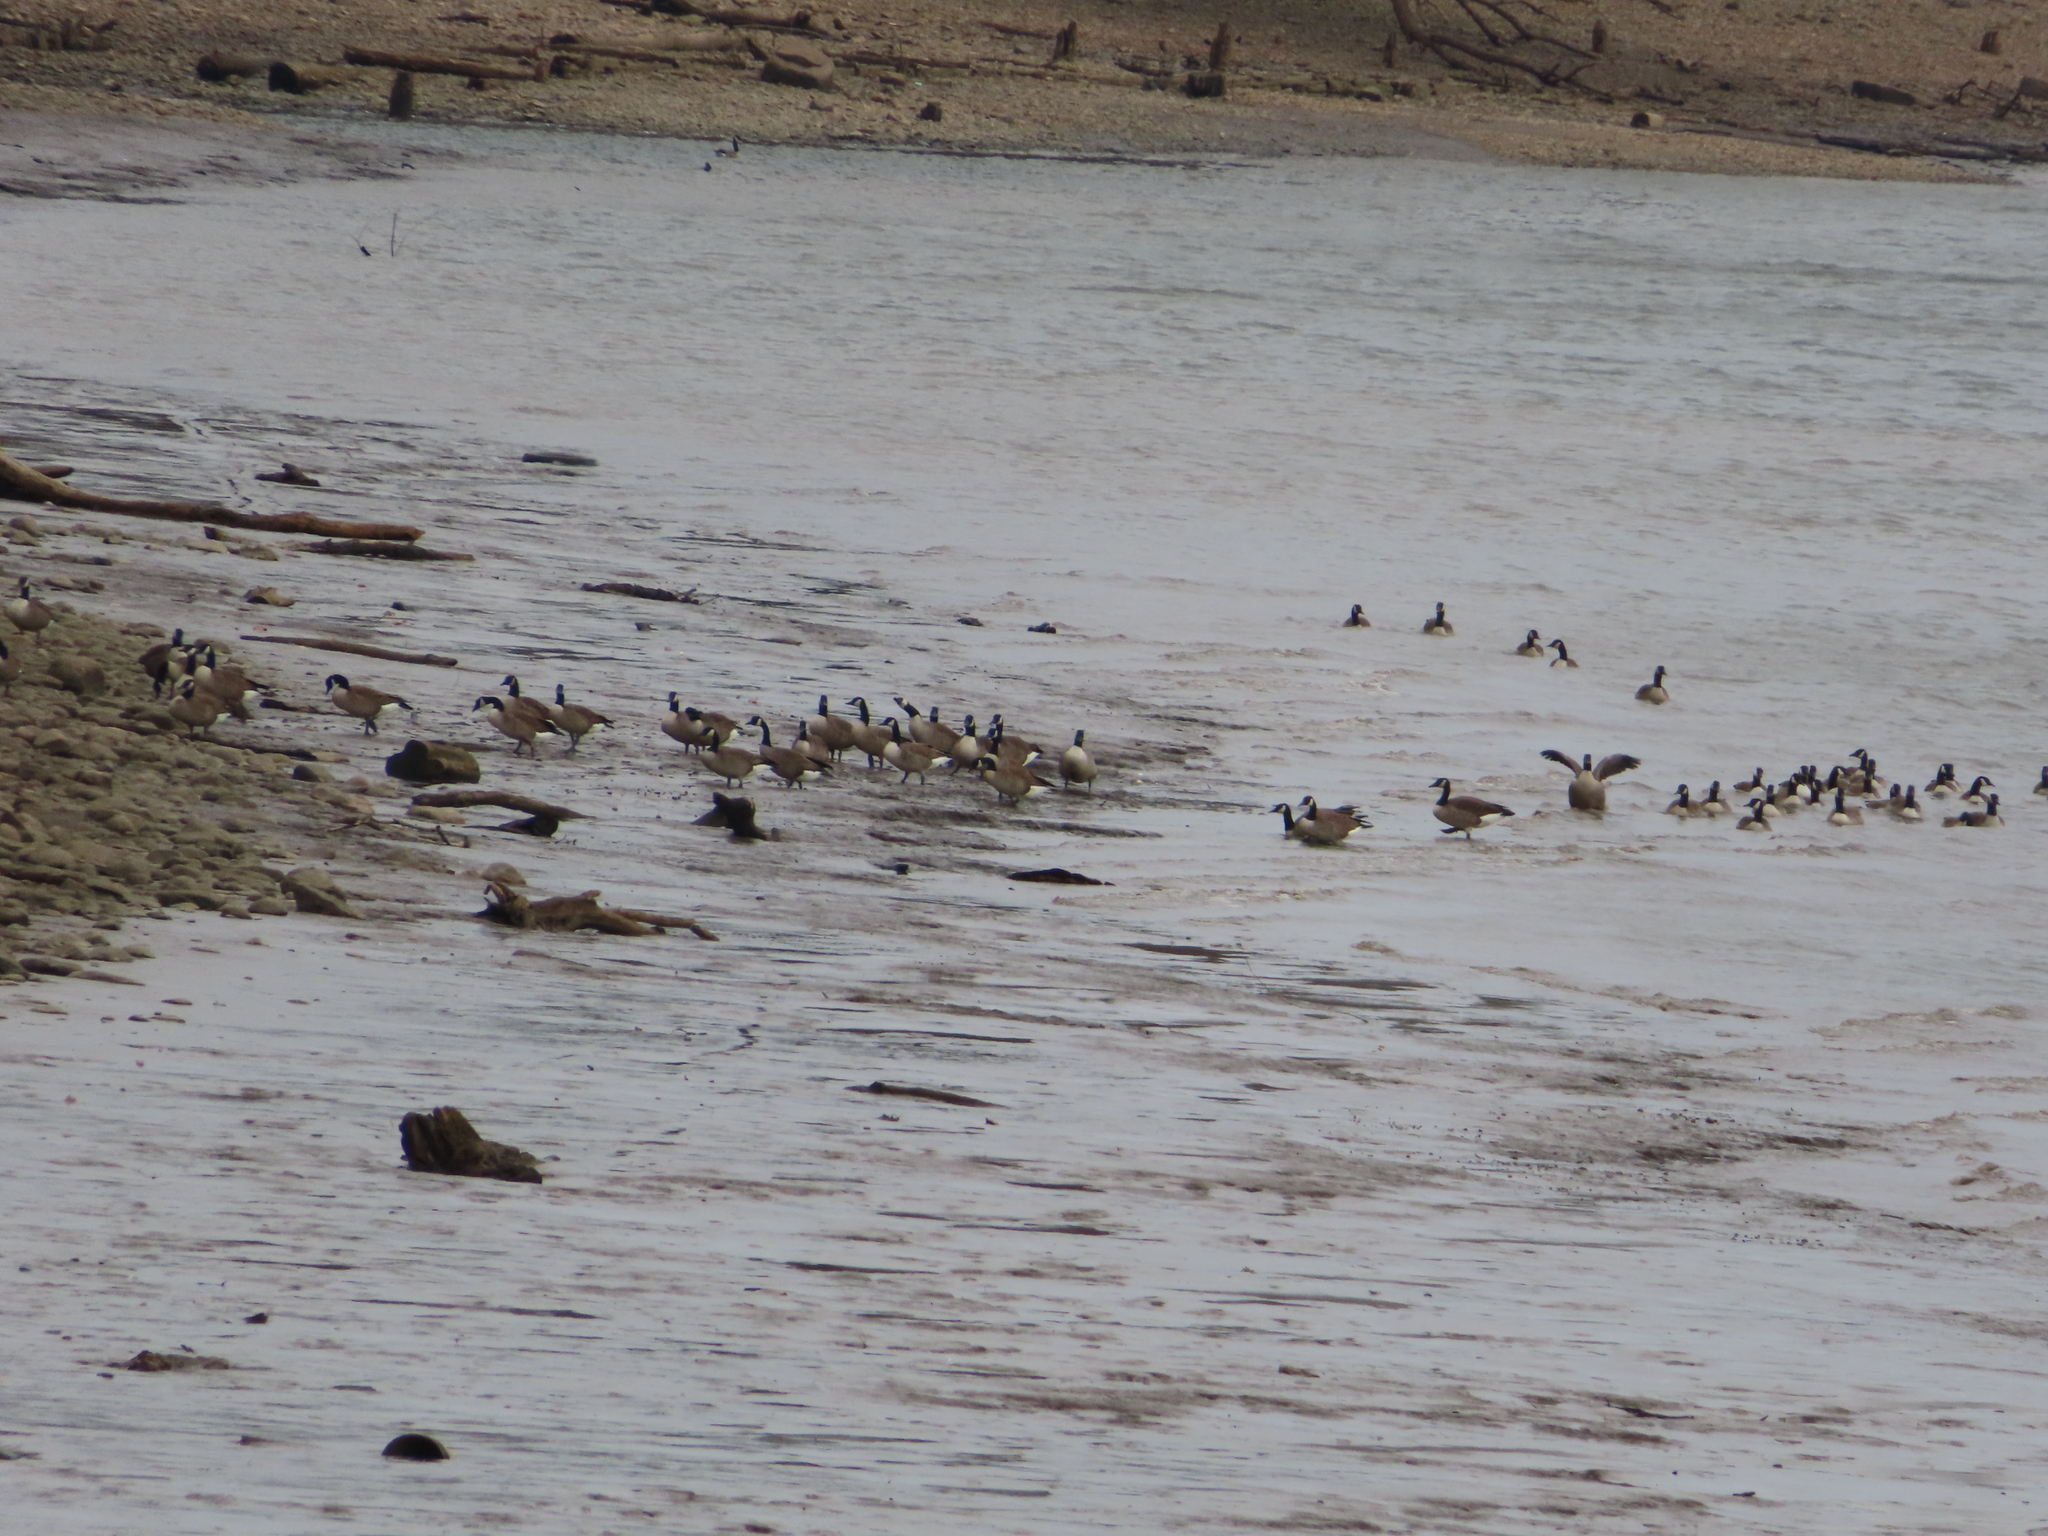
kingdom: Animalia
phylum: Chordata
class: Aves
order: Anseriformes
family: Anatidae
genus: Branta
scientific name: Branta canadensis
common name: Canada goose
